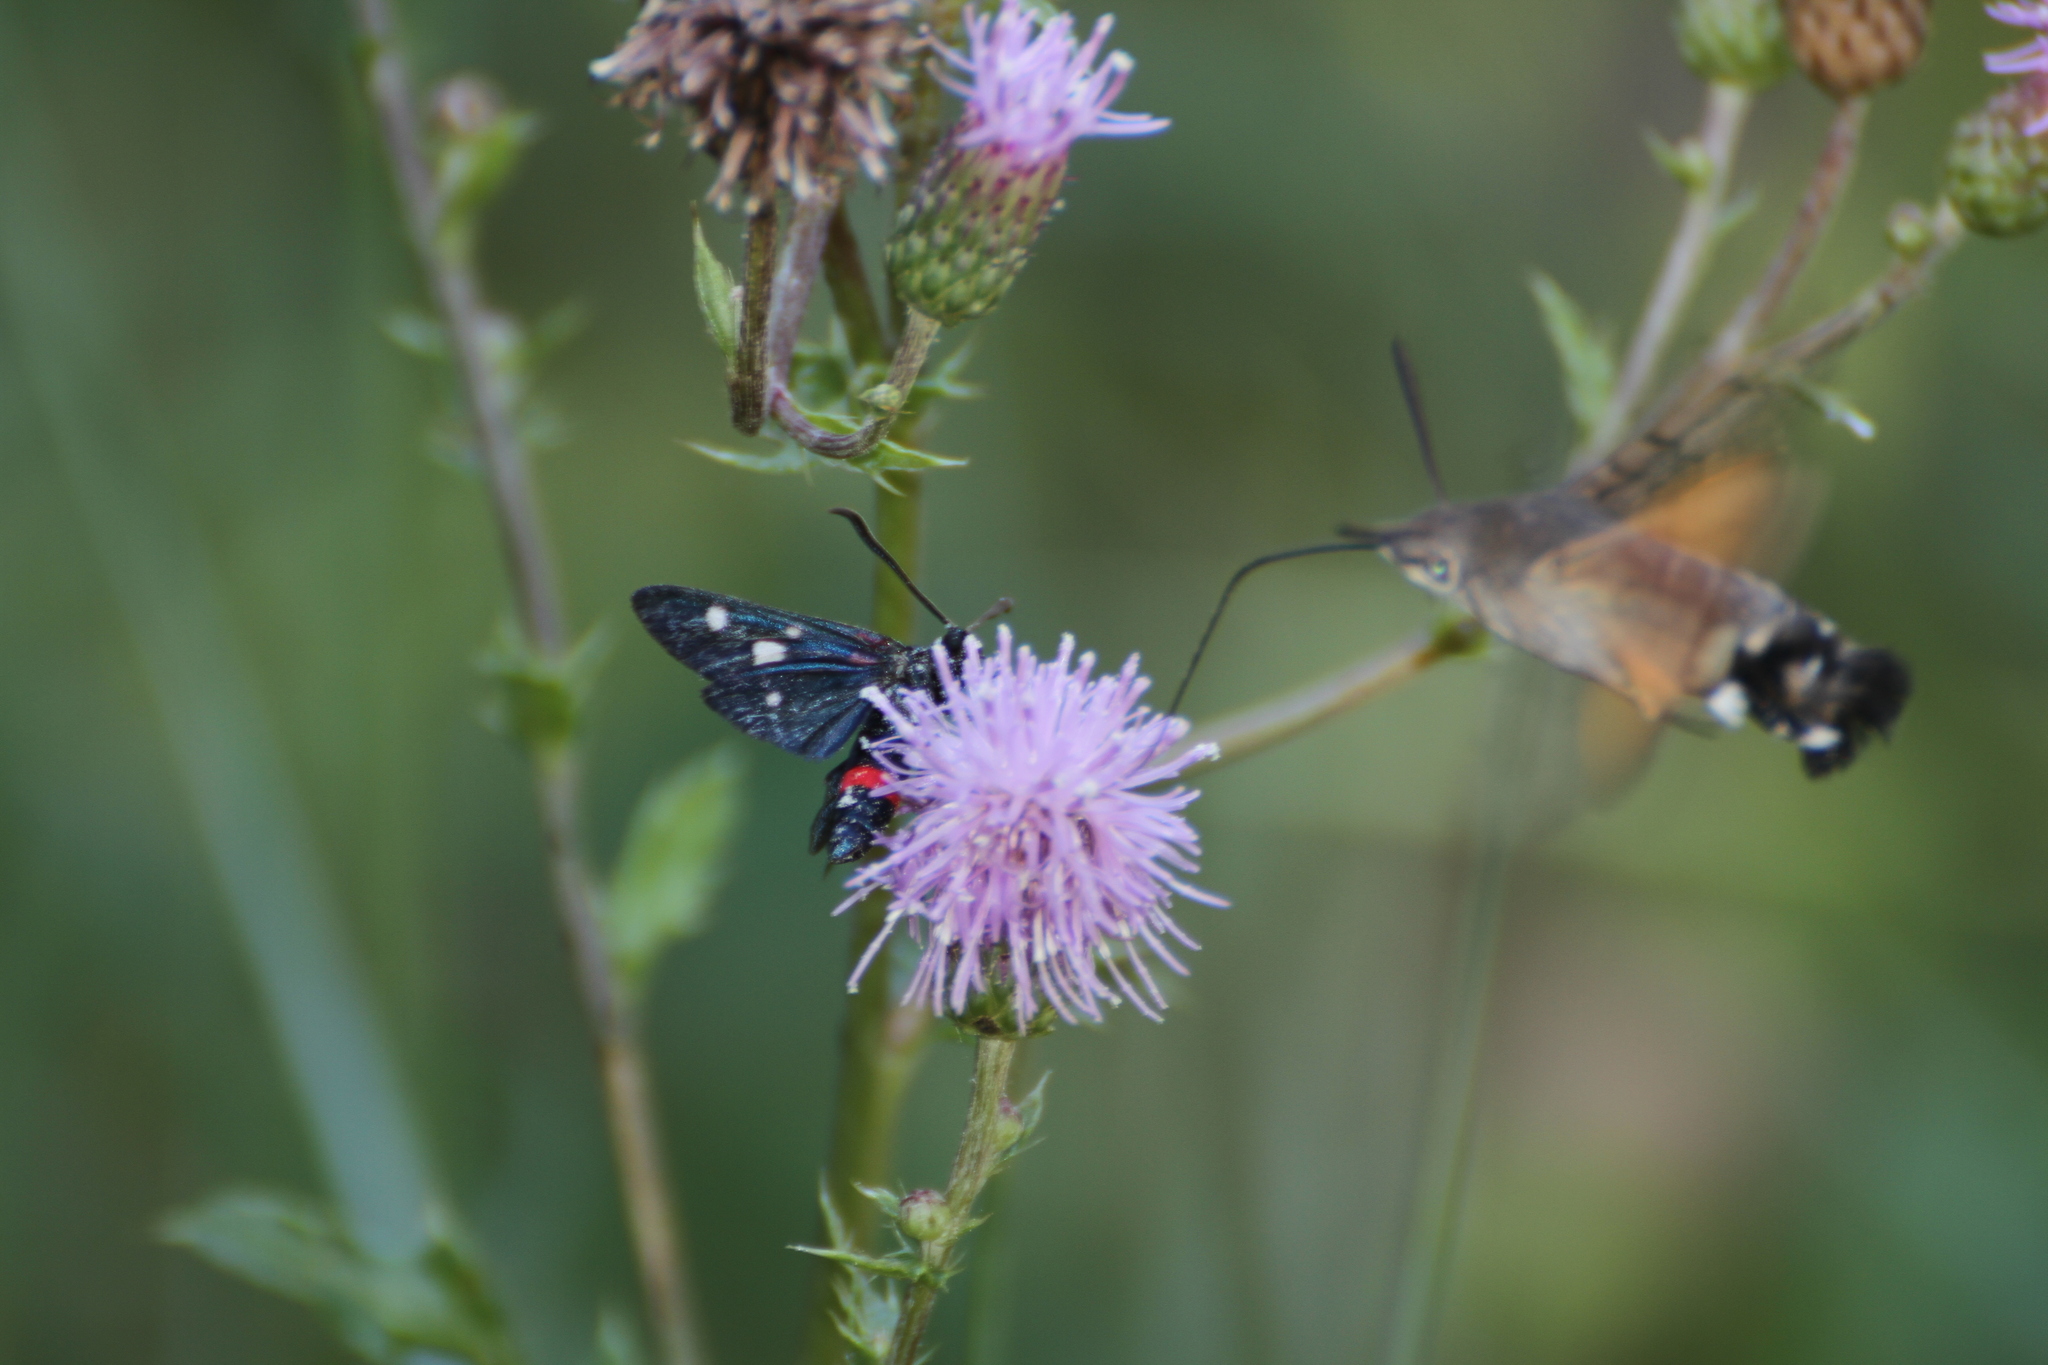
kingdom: Animalia
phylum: Arthropoda
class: Insecta
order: Lepidoptera
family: Zygaenidae
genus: Zygaena
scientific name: Zygaena ephialtes
